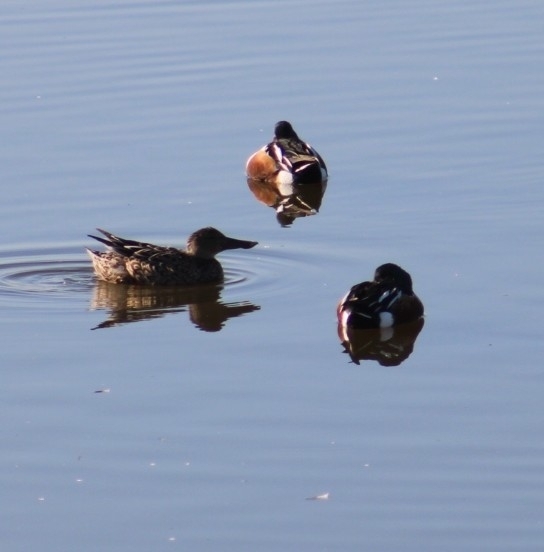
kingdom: Animalia
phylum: Chordata
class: Aves
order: Anseriformes
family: Anatidae
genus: Spatula
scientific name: Spatula clypeata
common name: Northern shoveler
